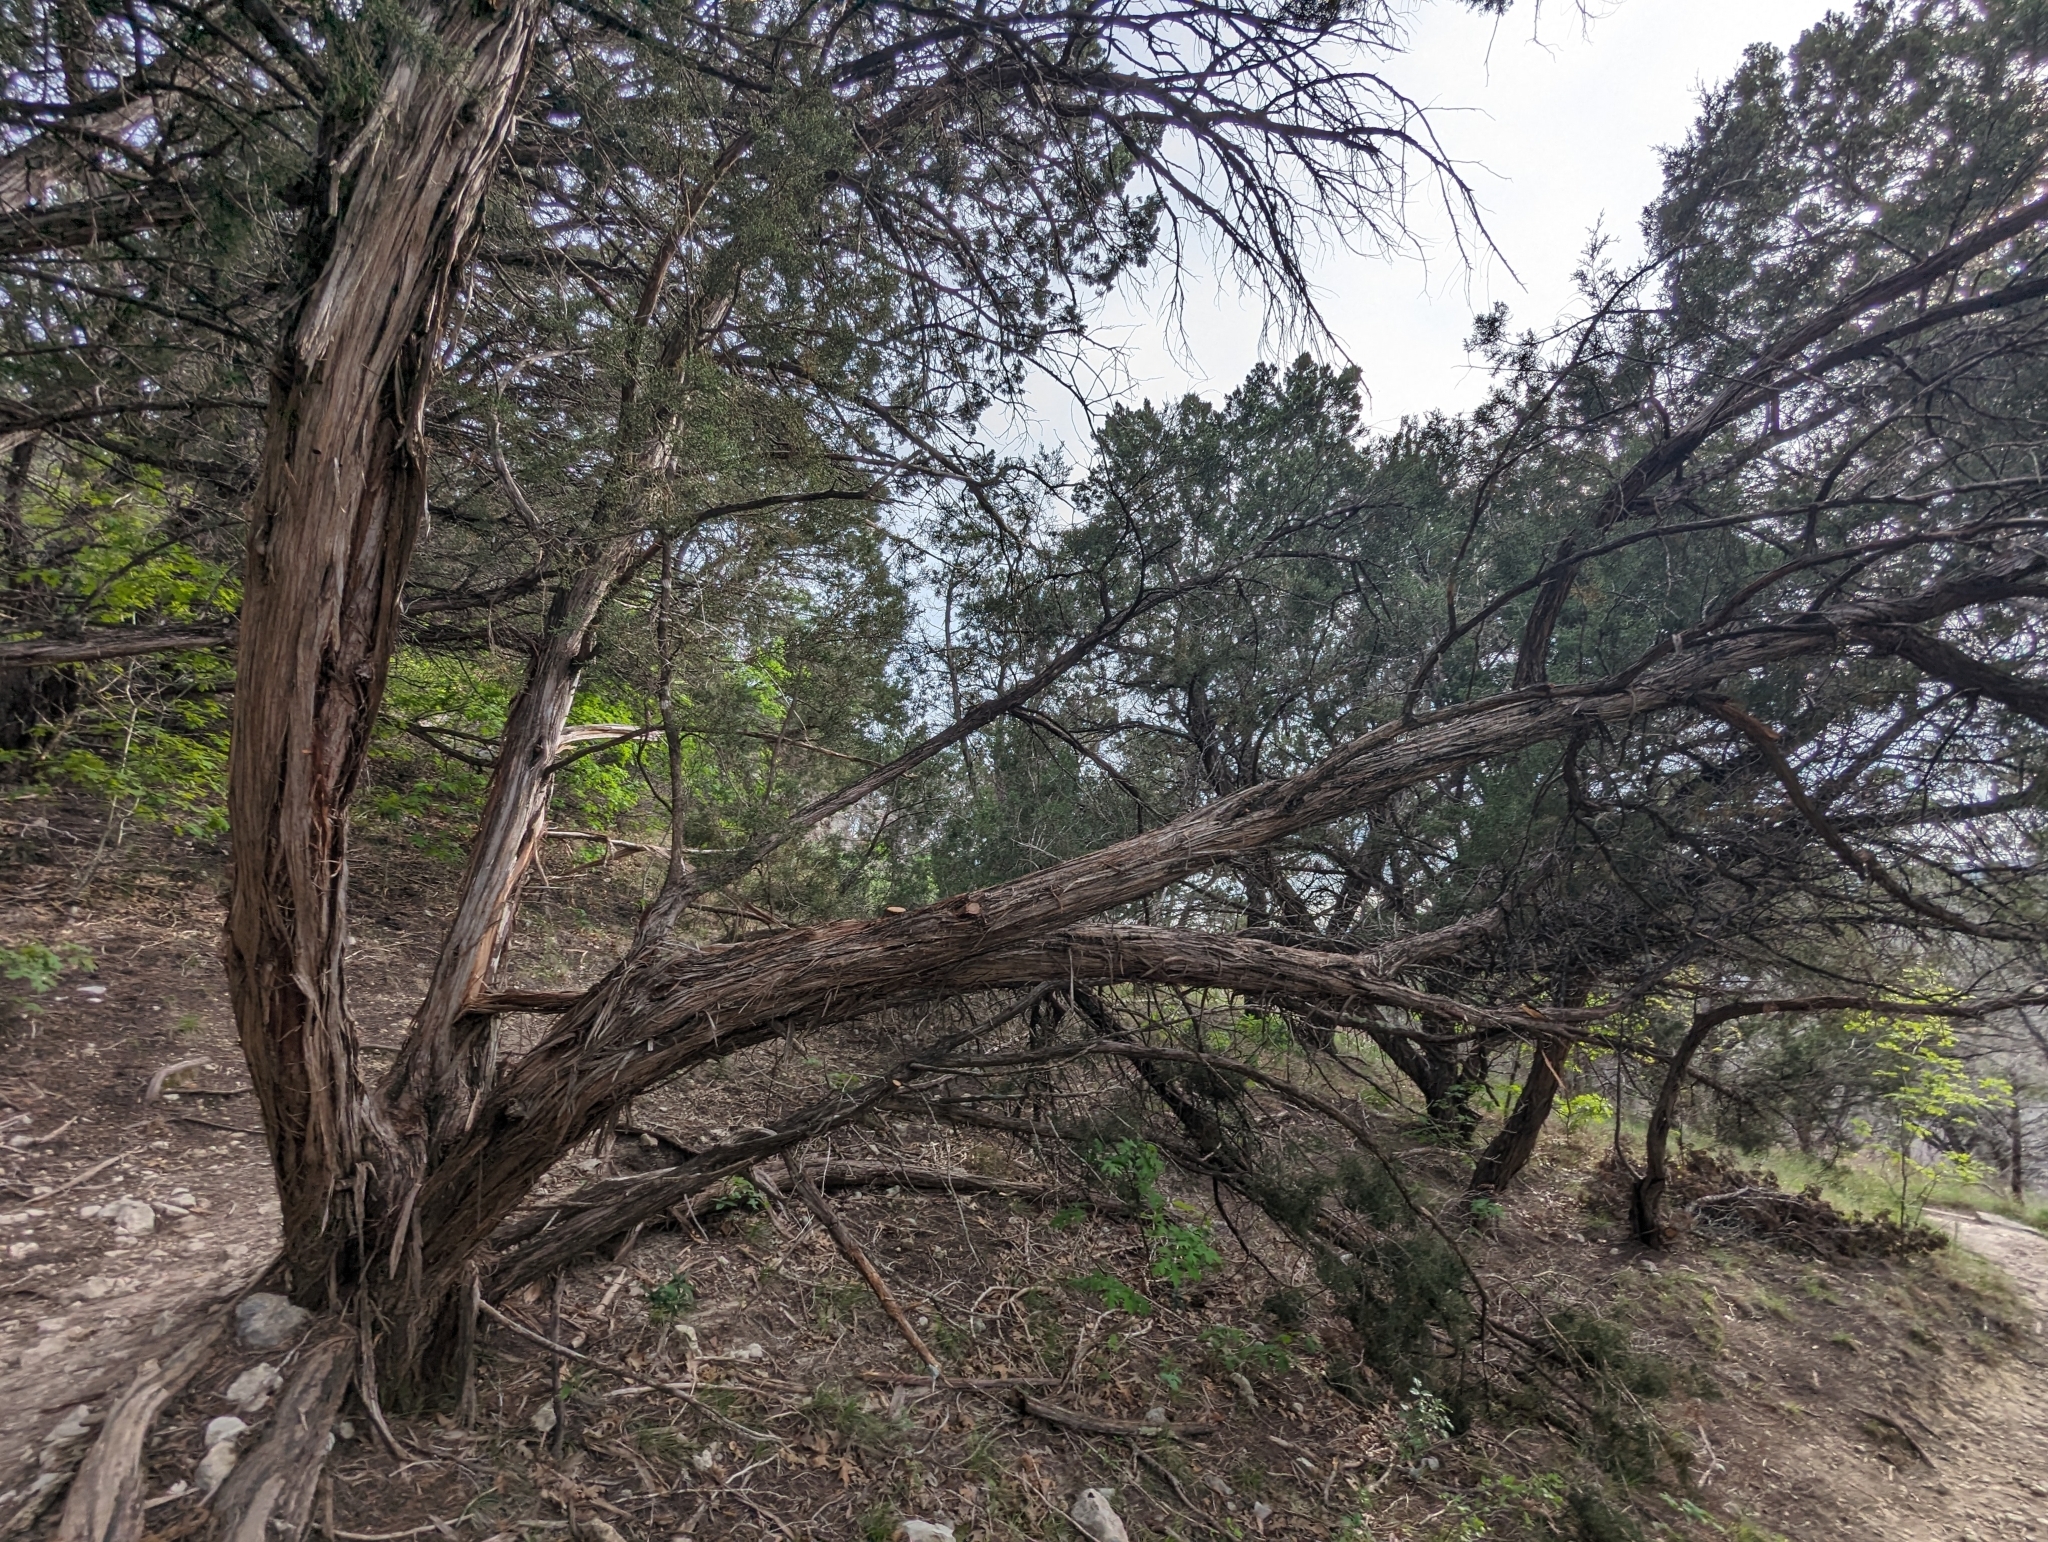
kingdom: Plantae
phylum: Tracheophyta
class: Pinopsida
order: Pinales
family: Cupressaceae
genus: Juniperus
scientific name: Juniperus ashei
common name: Mexican juniper
